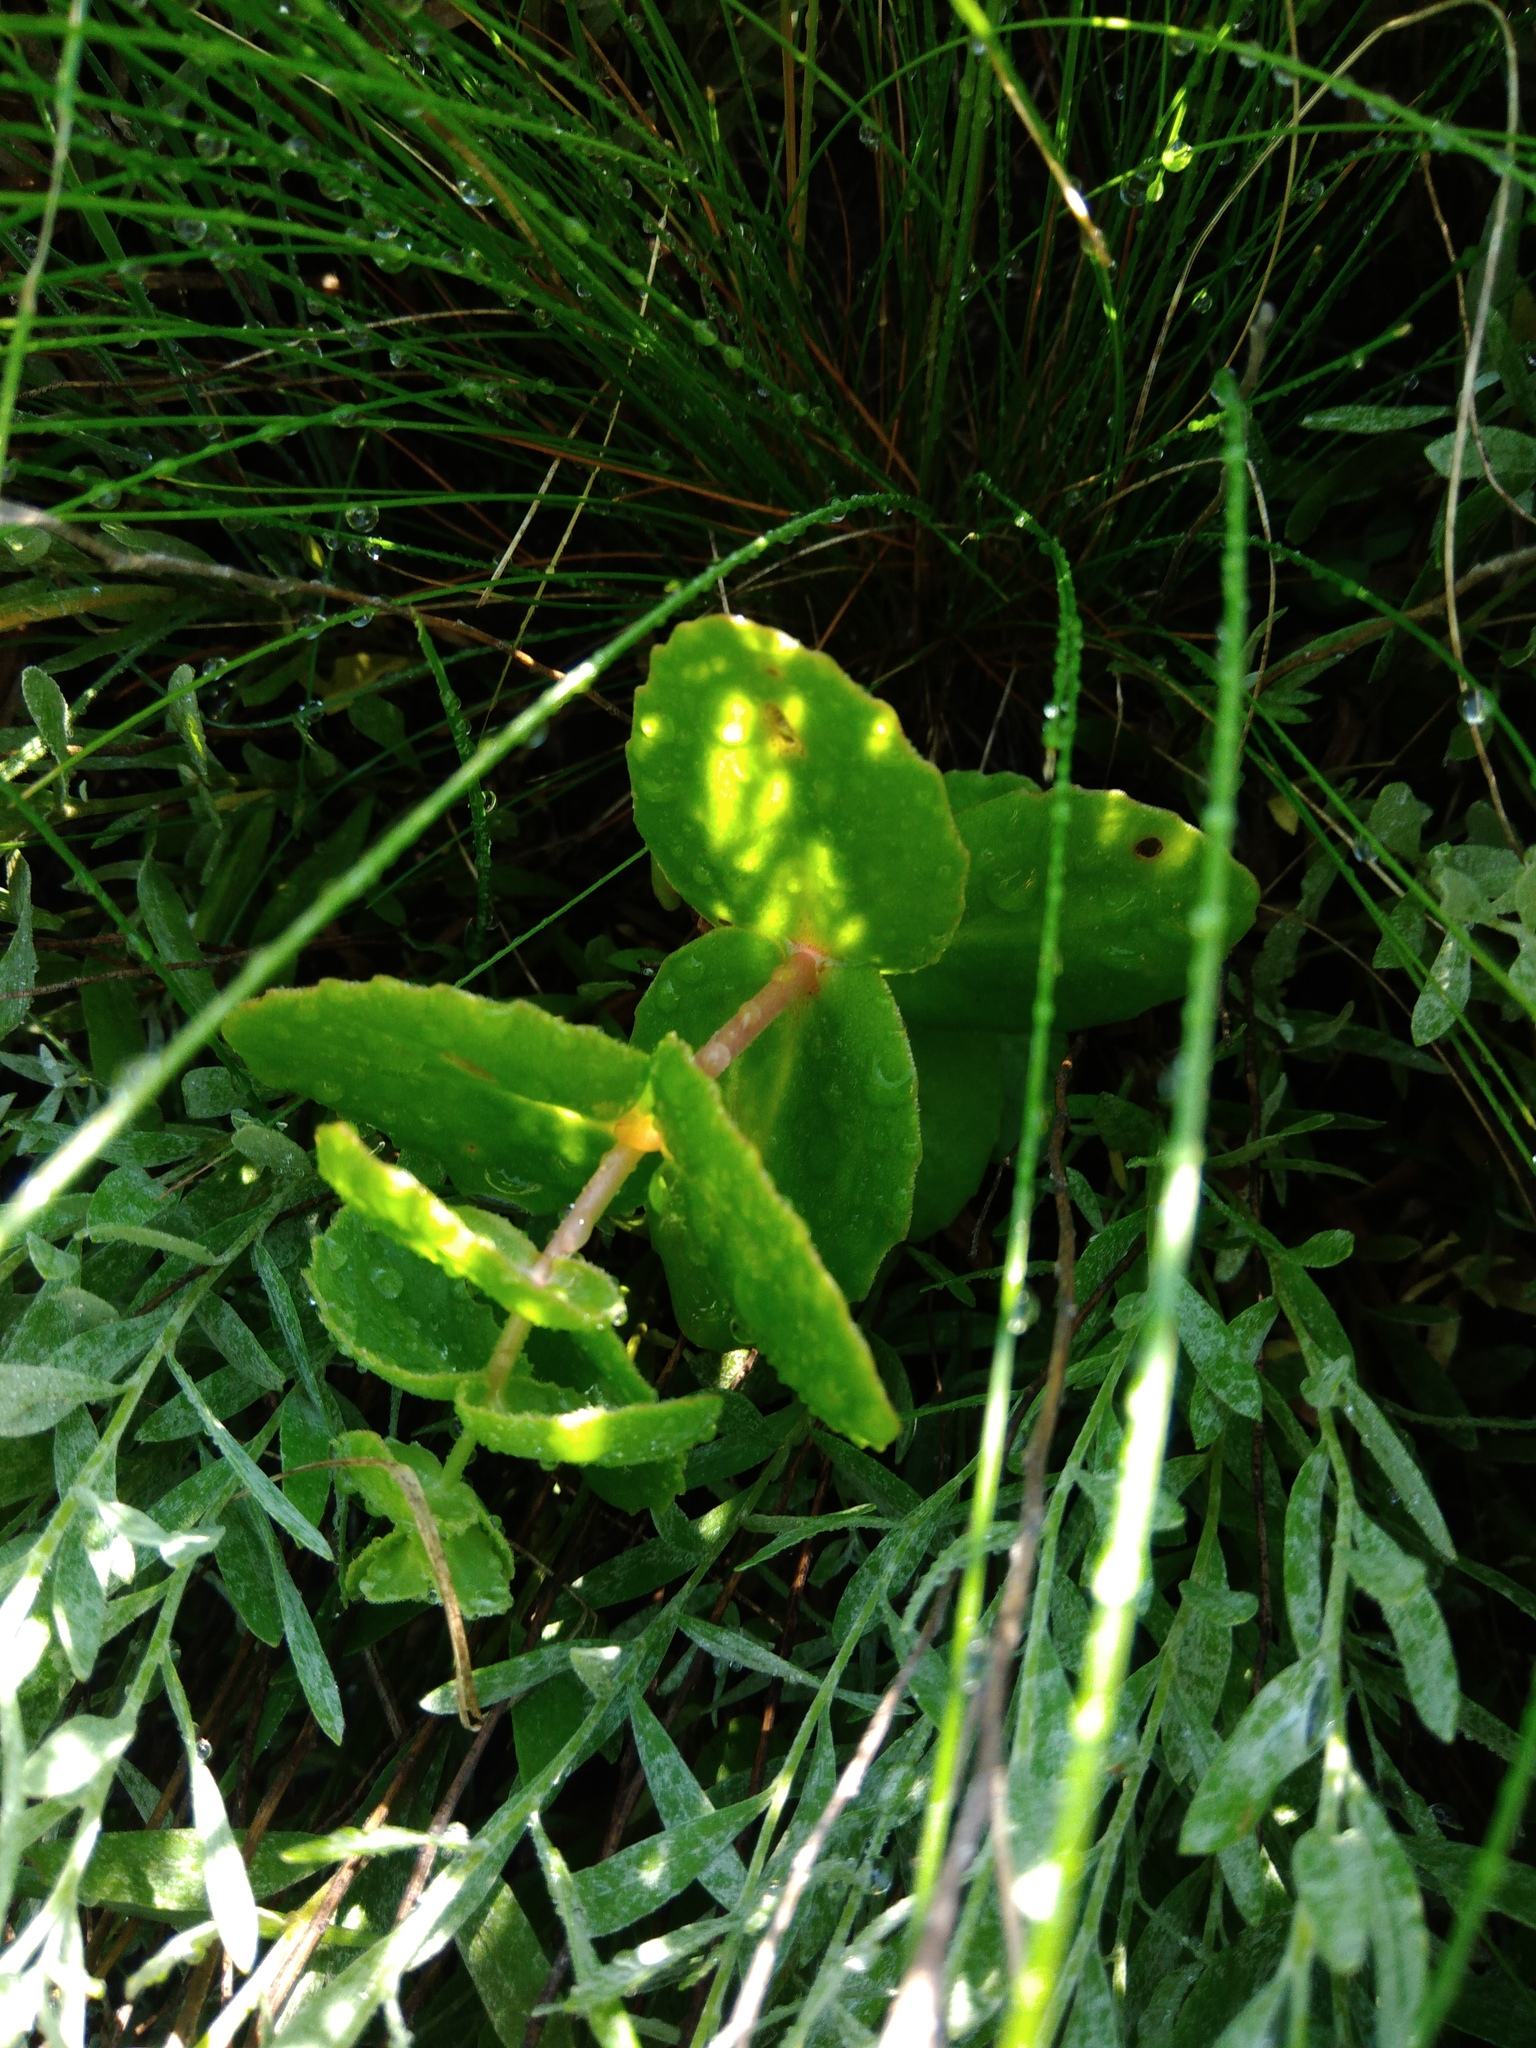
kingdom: Plantae
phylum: Tracheophyta
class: Magnoliopsida
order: Saxifragales
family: Crassulaceae
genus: Hylotelephium
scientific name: Hylotelephium maximum
